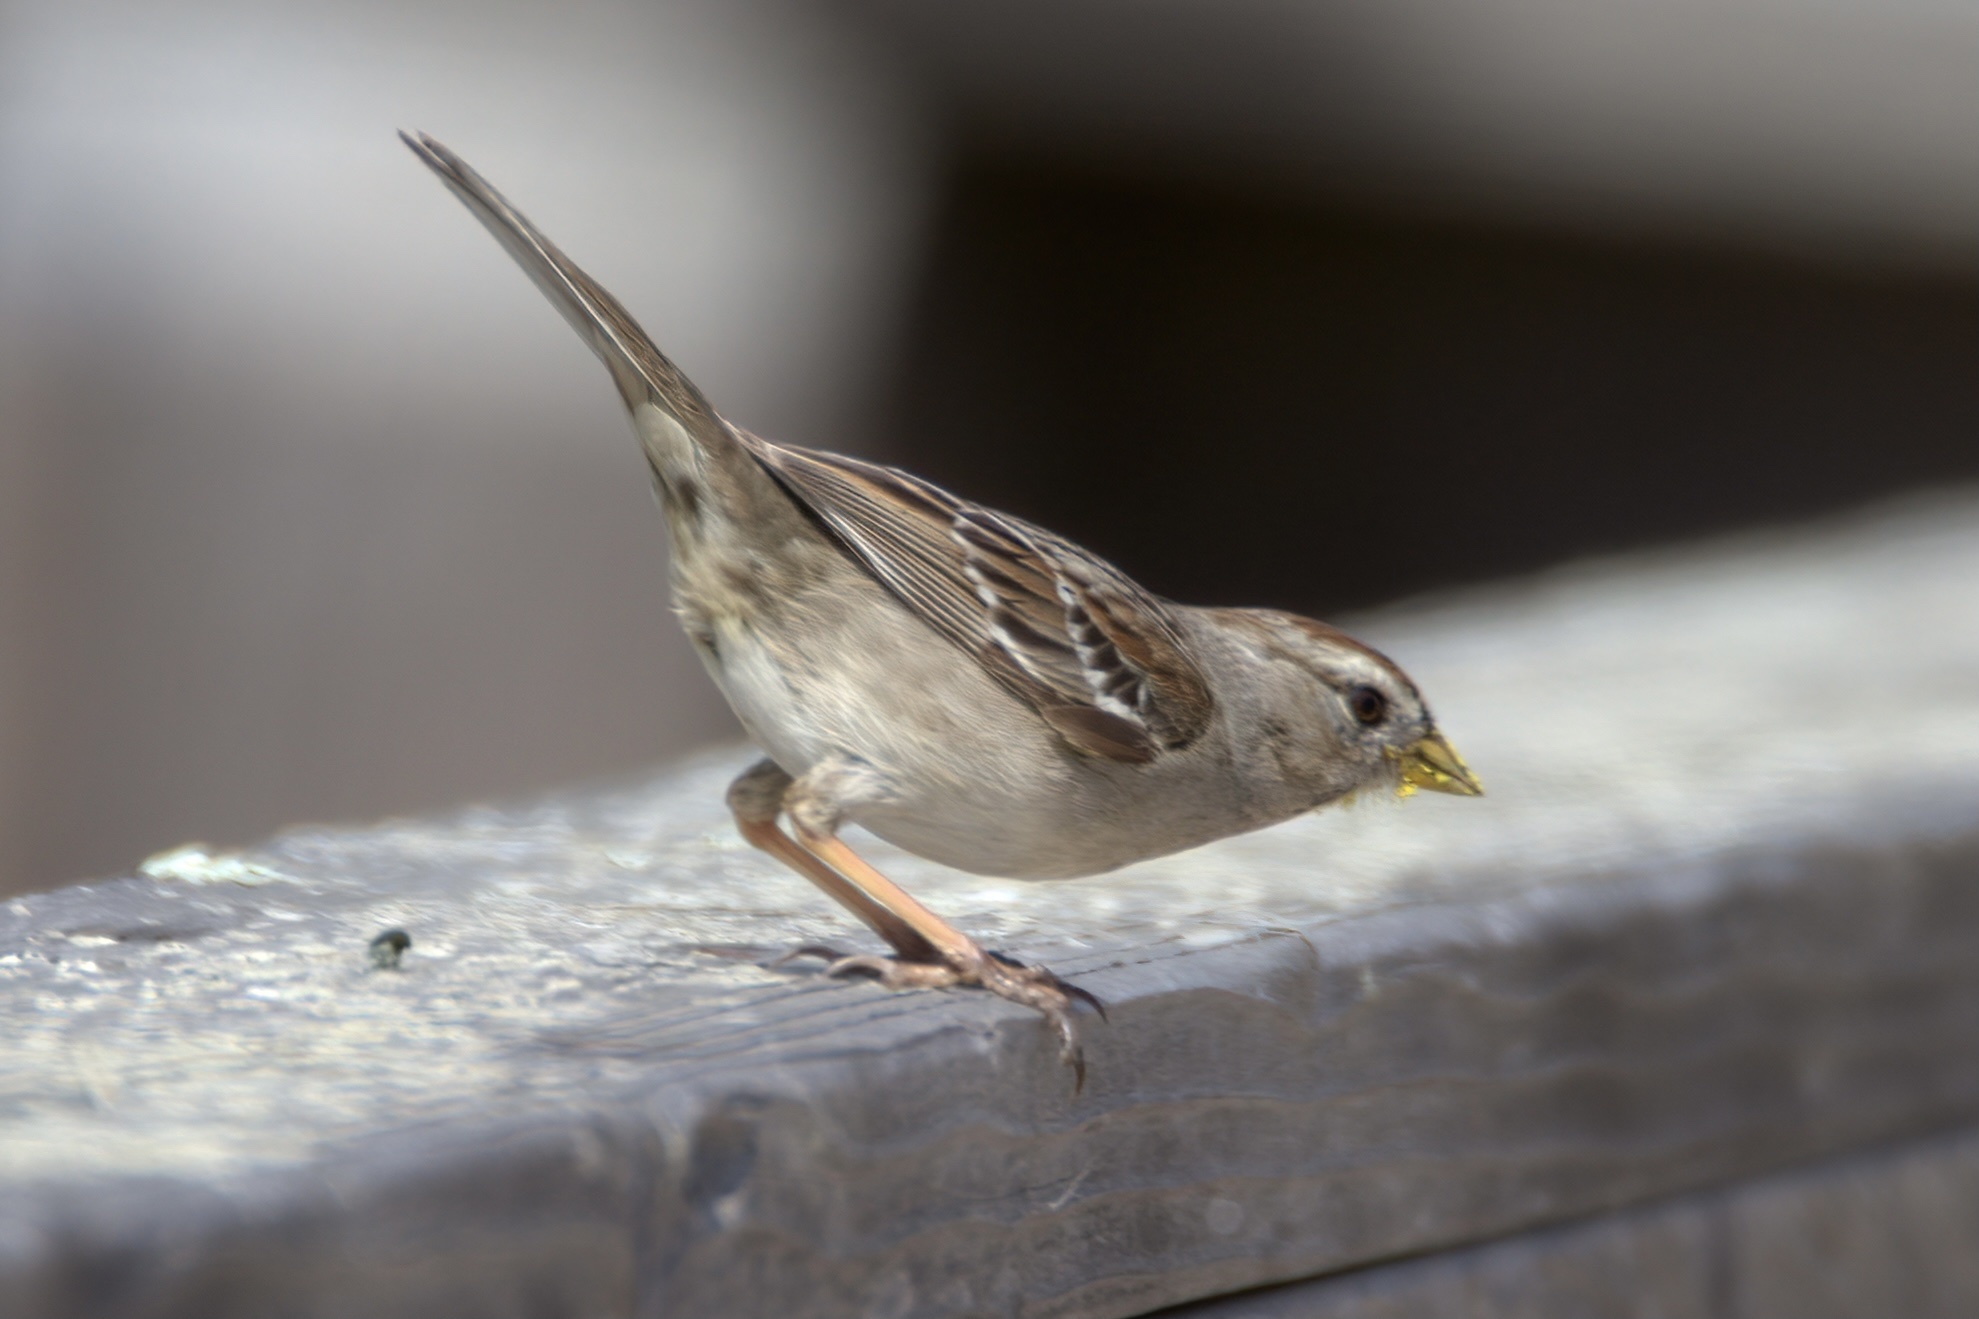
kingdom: Animalia
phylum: Chordata
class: Aves
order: Passeriformes
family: Passerellidae
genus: Zonotrichia
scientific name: Zonotrichia leucophrys
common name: White-crowned sparrow
